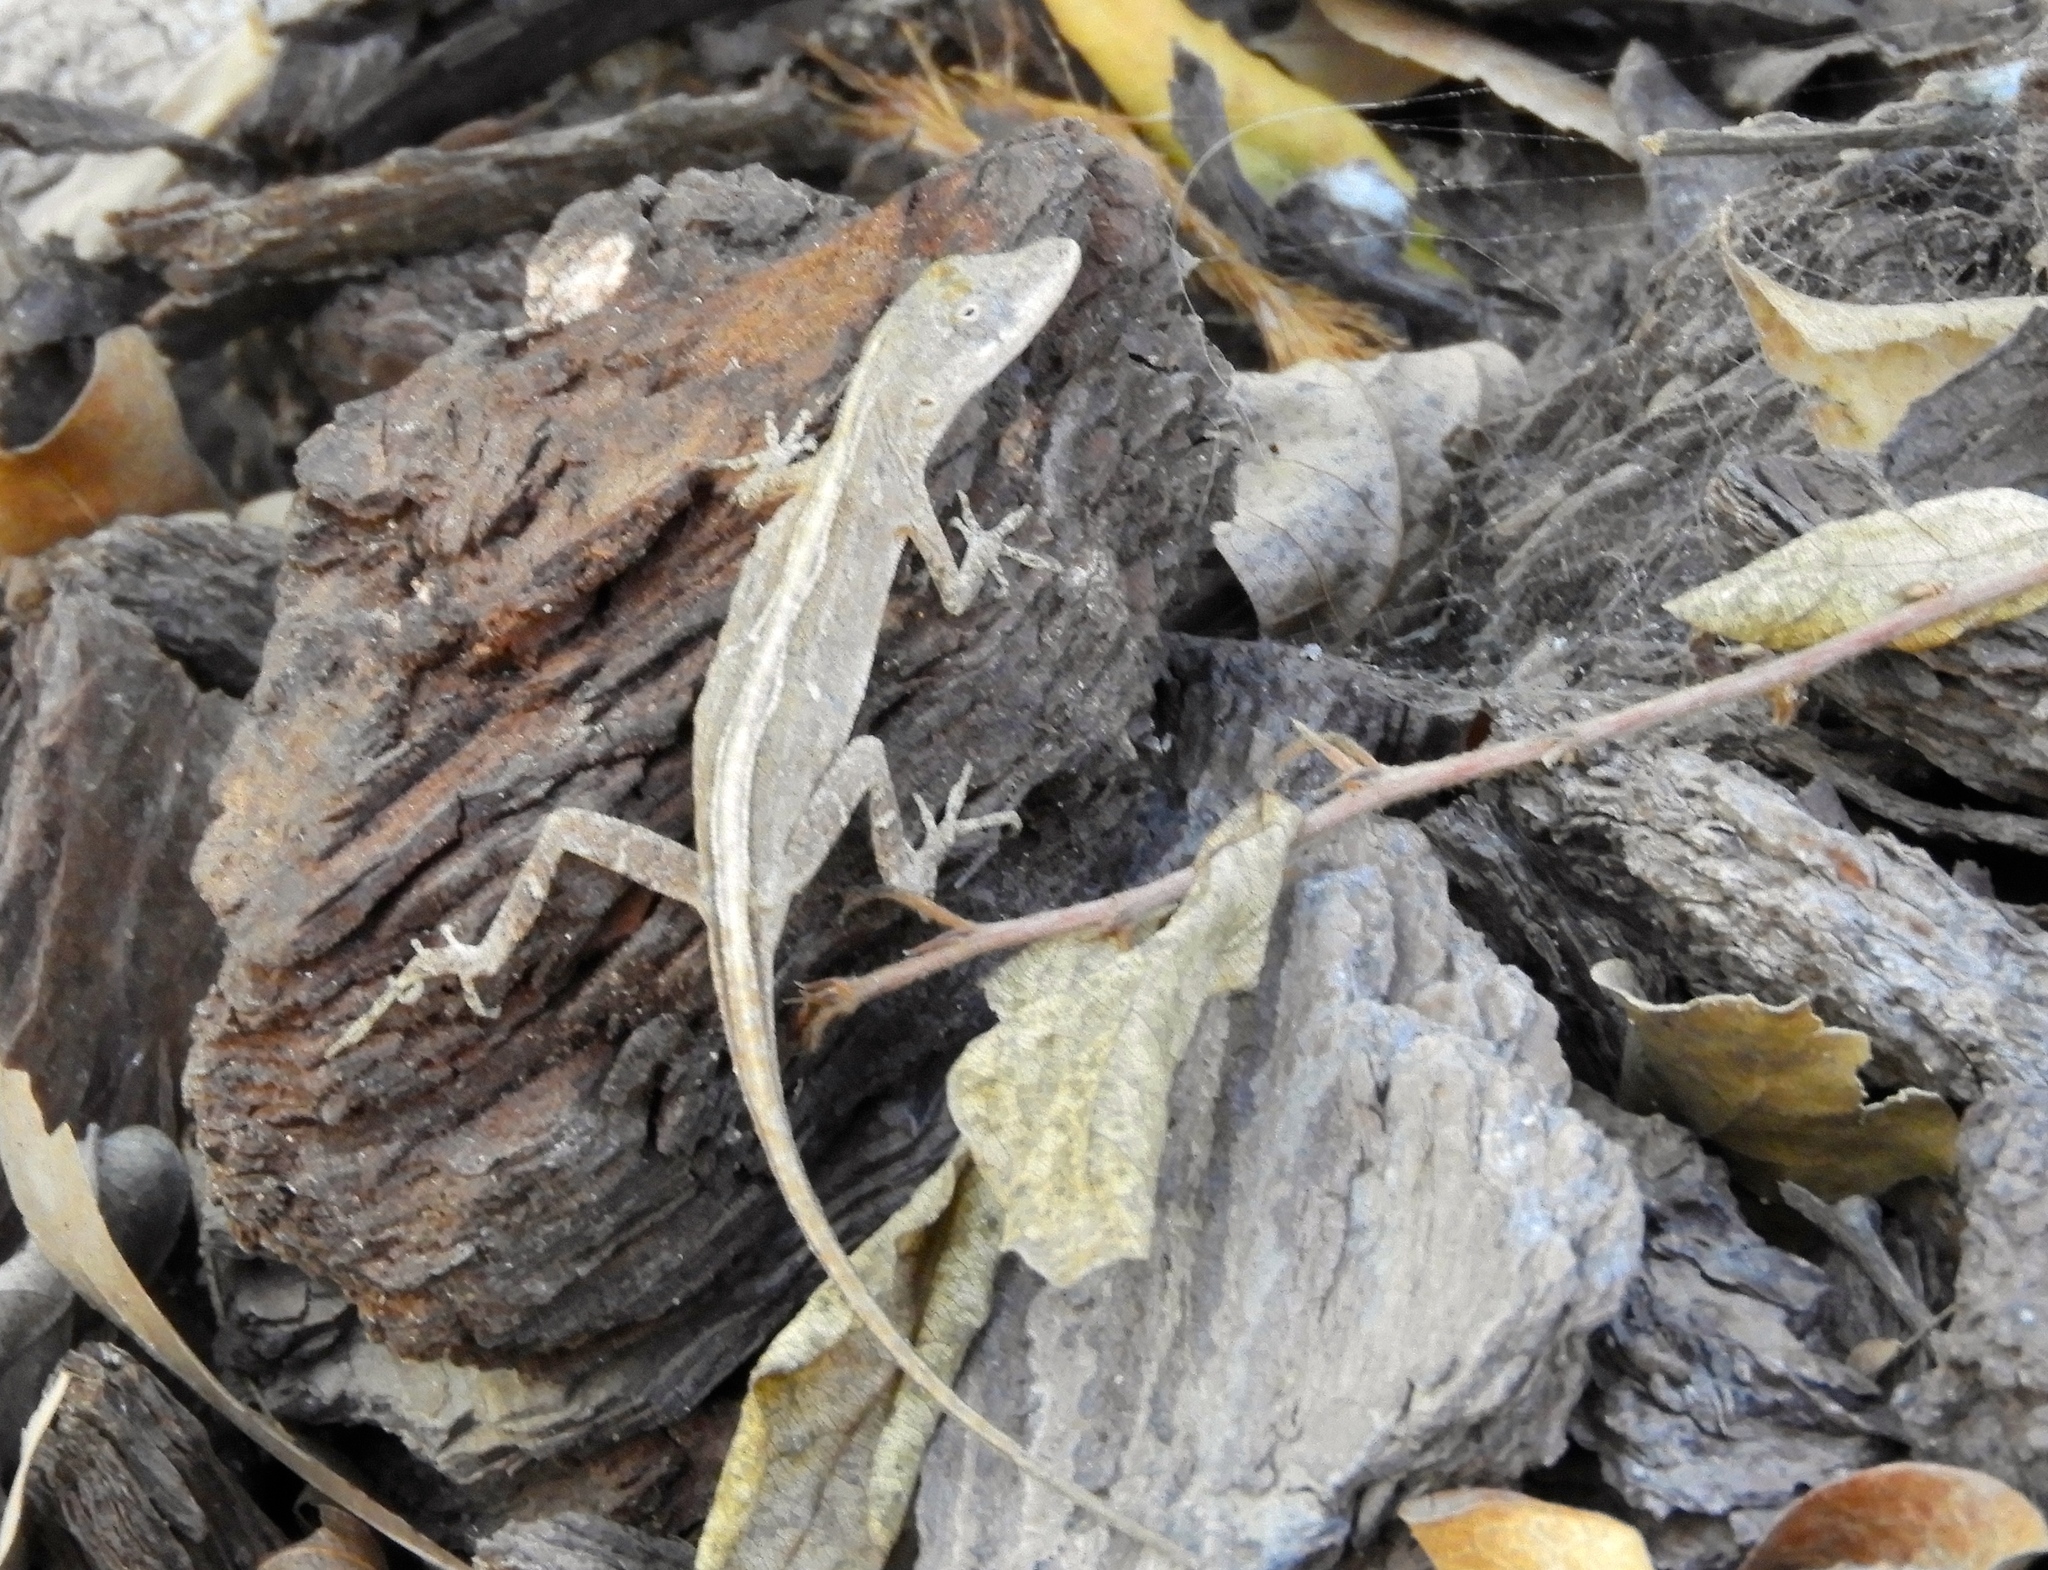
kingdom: Animalia
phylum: Chordata
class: Squamata
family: Dactyloidae
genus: Anolis
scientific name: Anolis nebulosus
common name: Clouded anole
